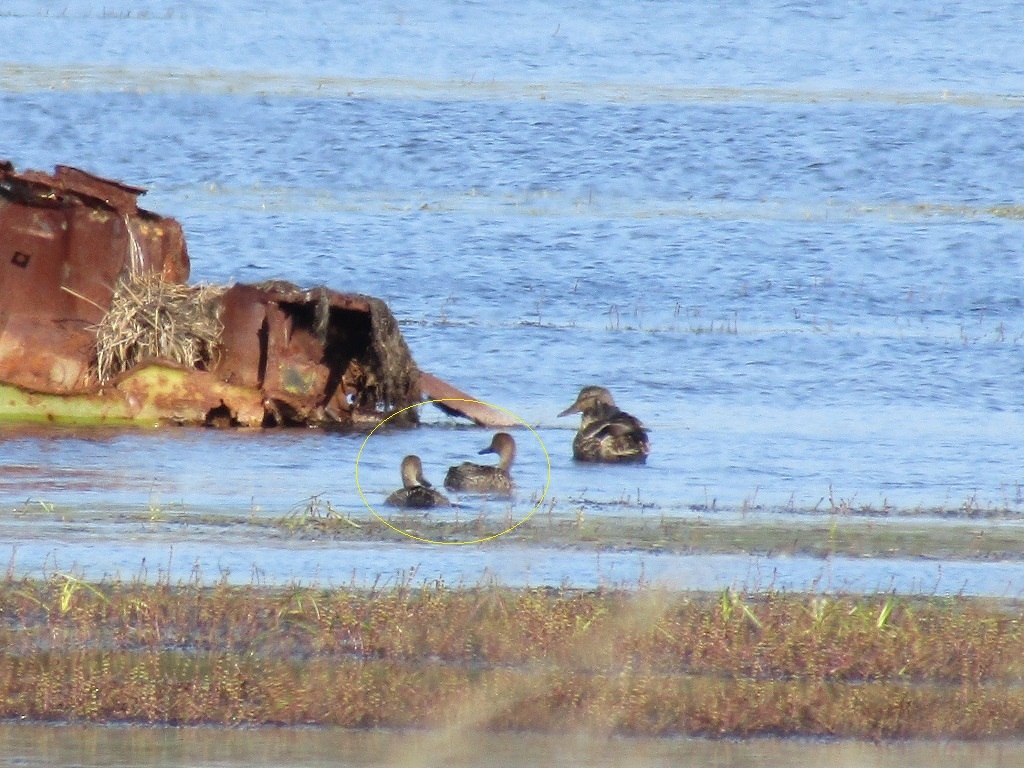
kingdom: Animalia
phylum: Chordata
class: Aves
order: Anseriformes
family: Anatidae
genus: Anas
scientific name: Anas acuta
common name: Northern pintail
